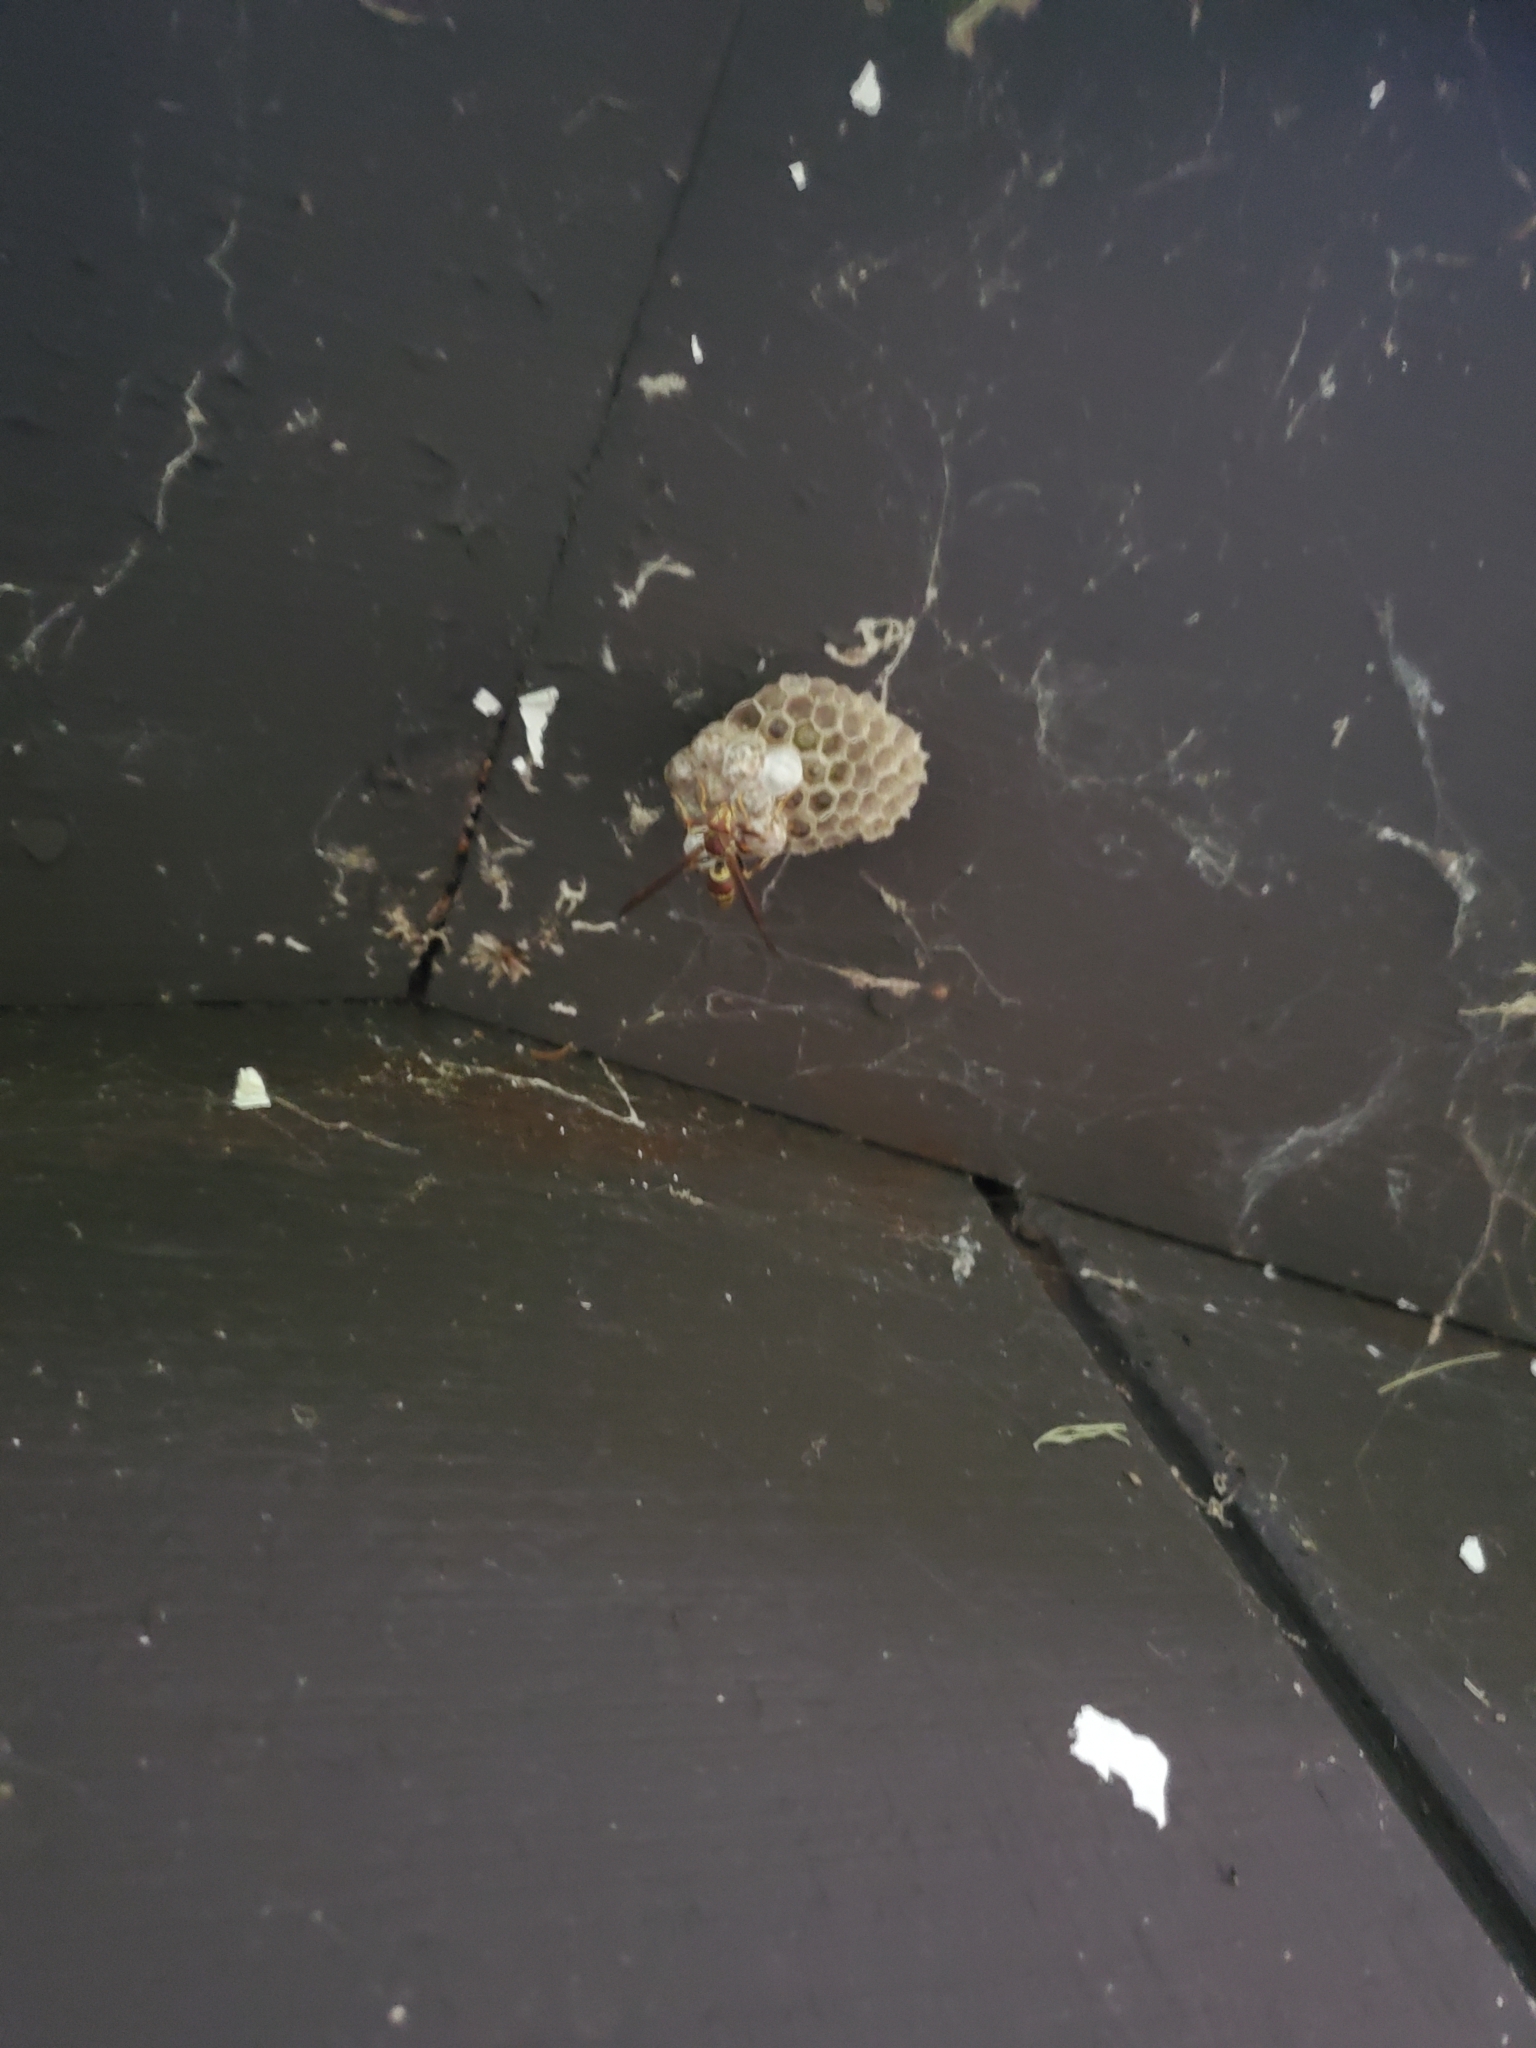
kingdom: Animalia
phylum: Arthropoda
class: Insecta
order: Hymenoptera
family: Eumenidae
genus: Polistes
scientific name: Polistes exclamans
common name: Paper wasp
